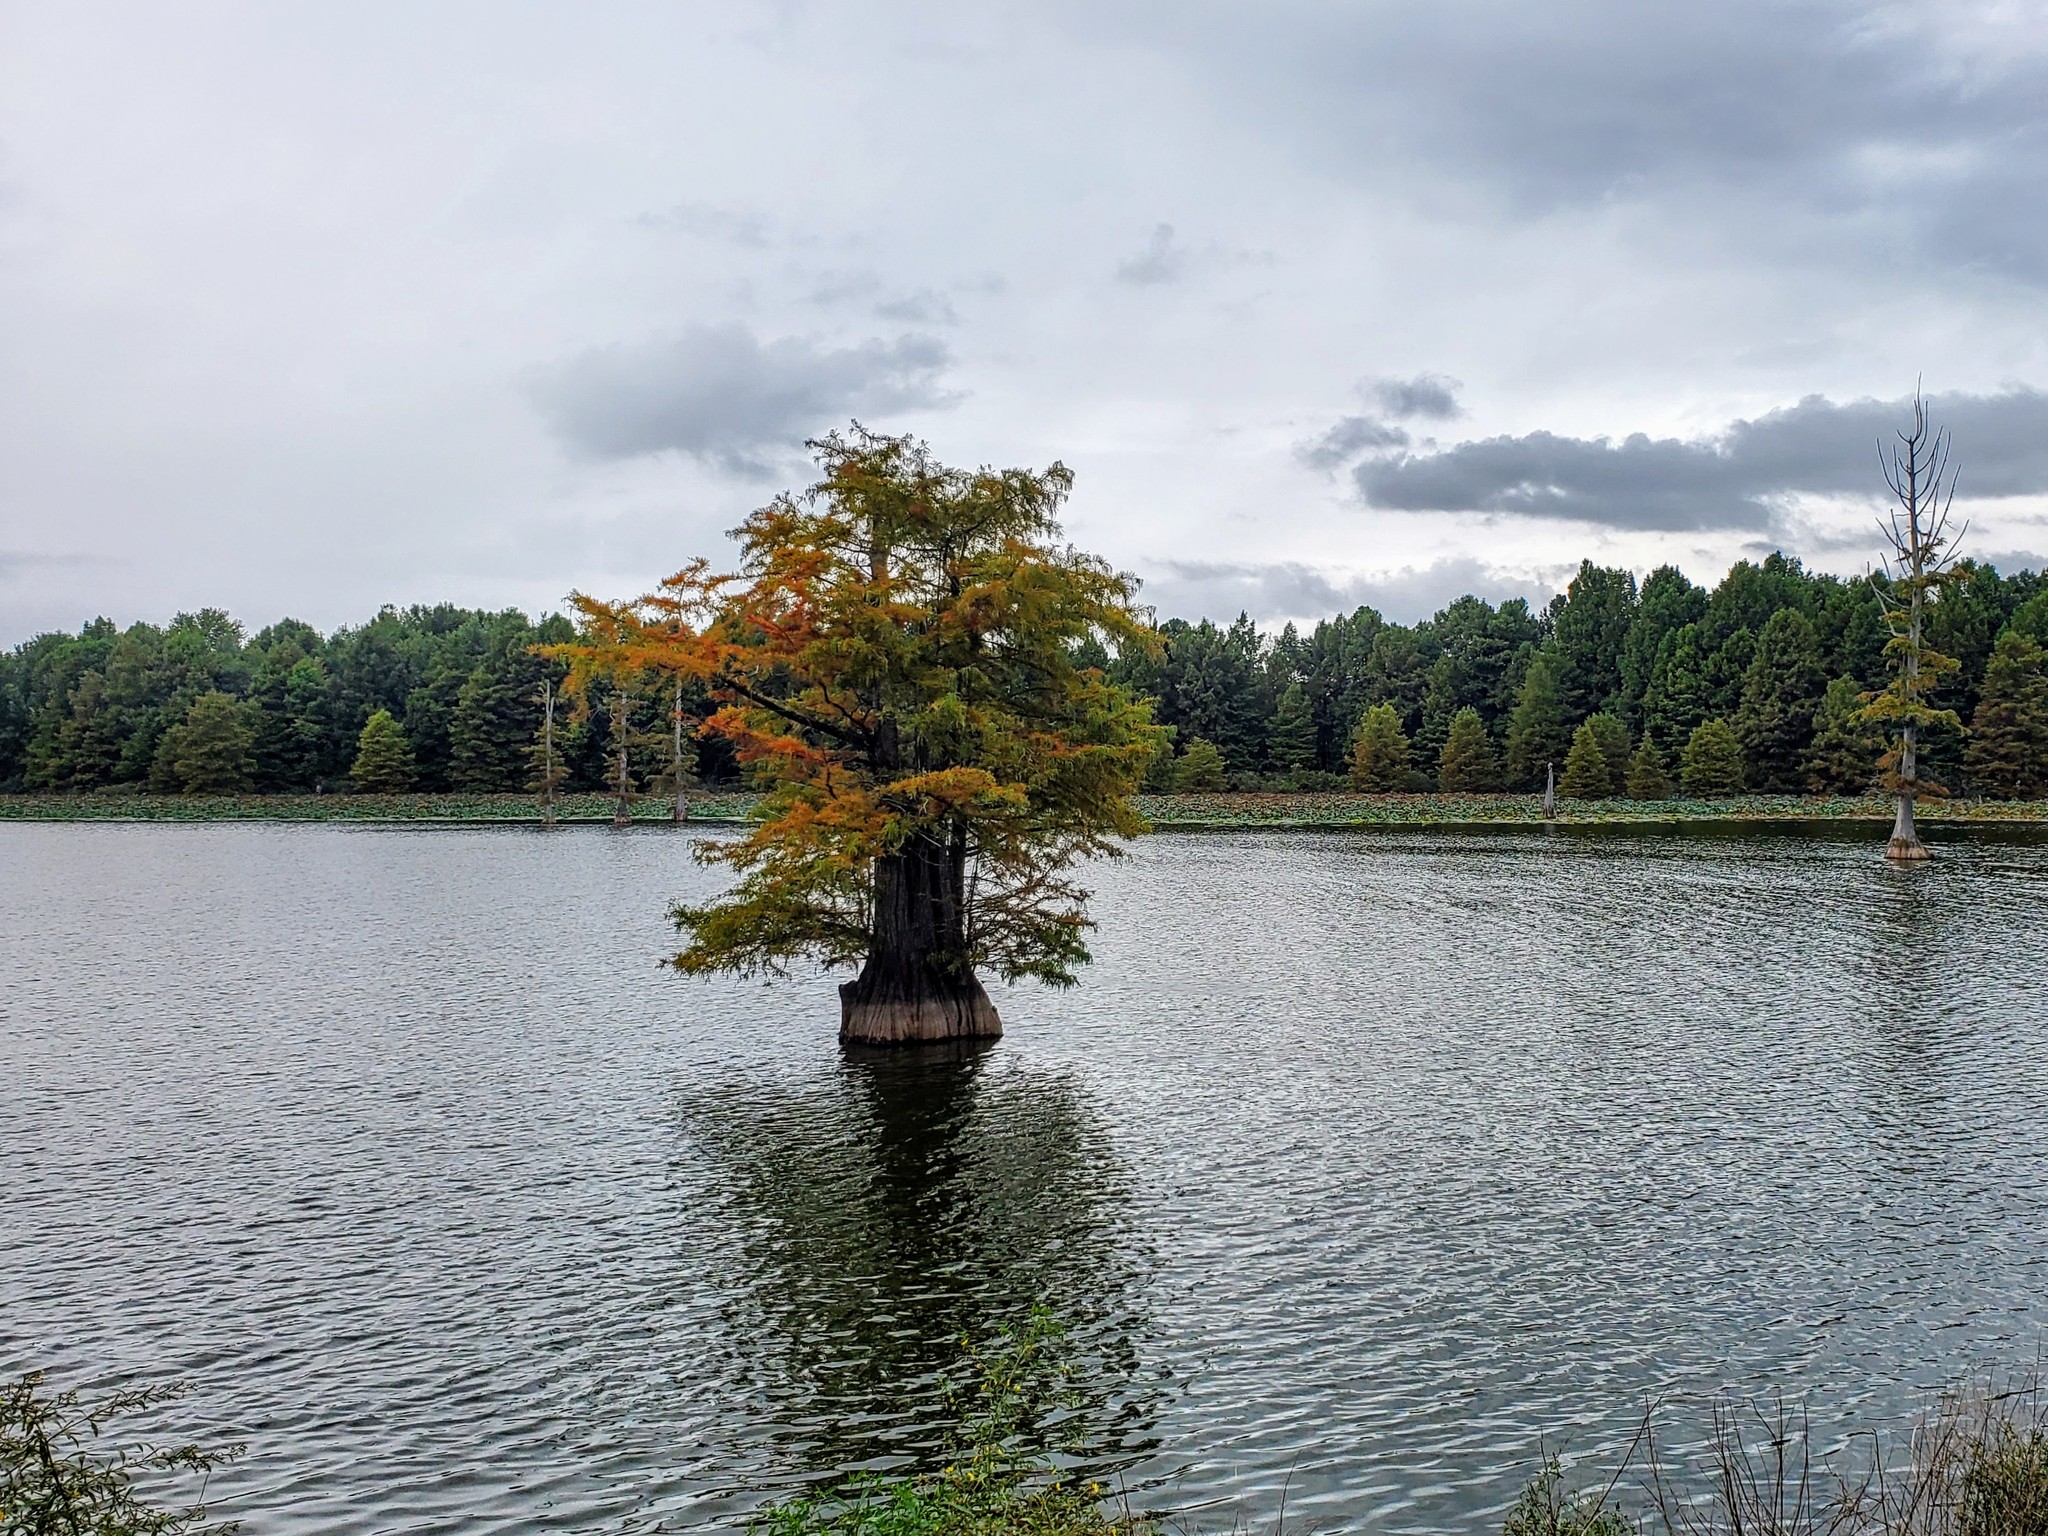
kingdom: Plantae
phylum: Tracheophyta
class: Pinopsida
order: Pinales
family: Cupressaceae
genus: Taxodium
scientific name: Taxodium distichum
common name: Bald cypress
